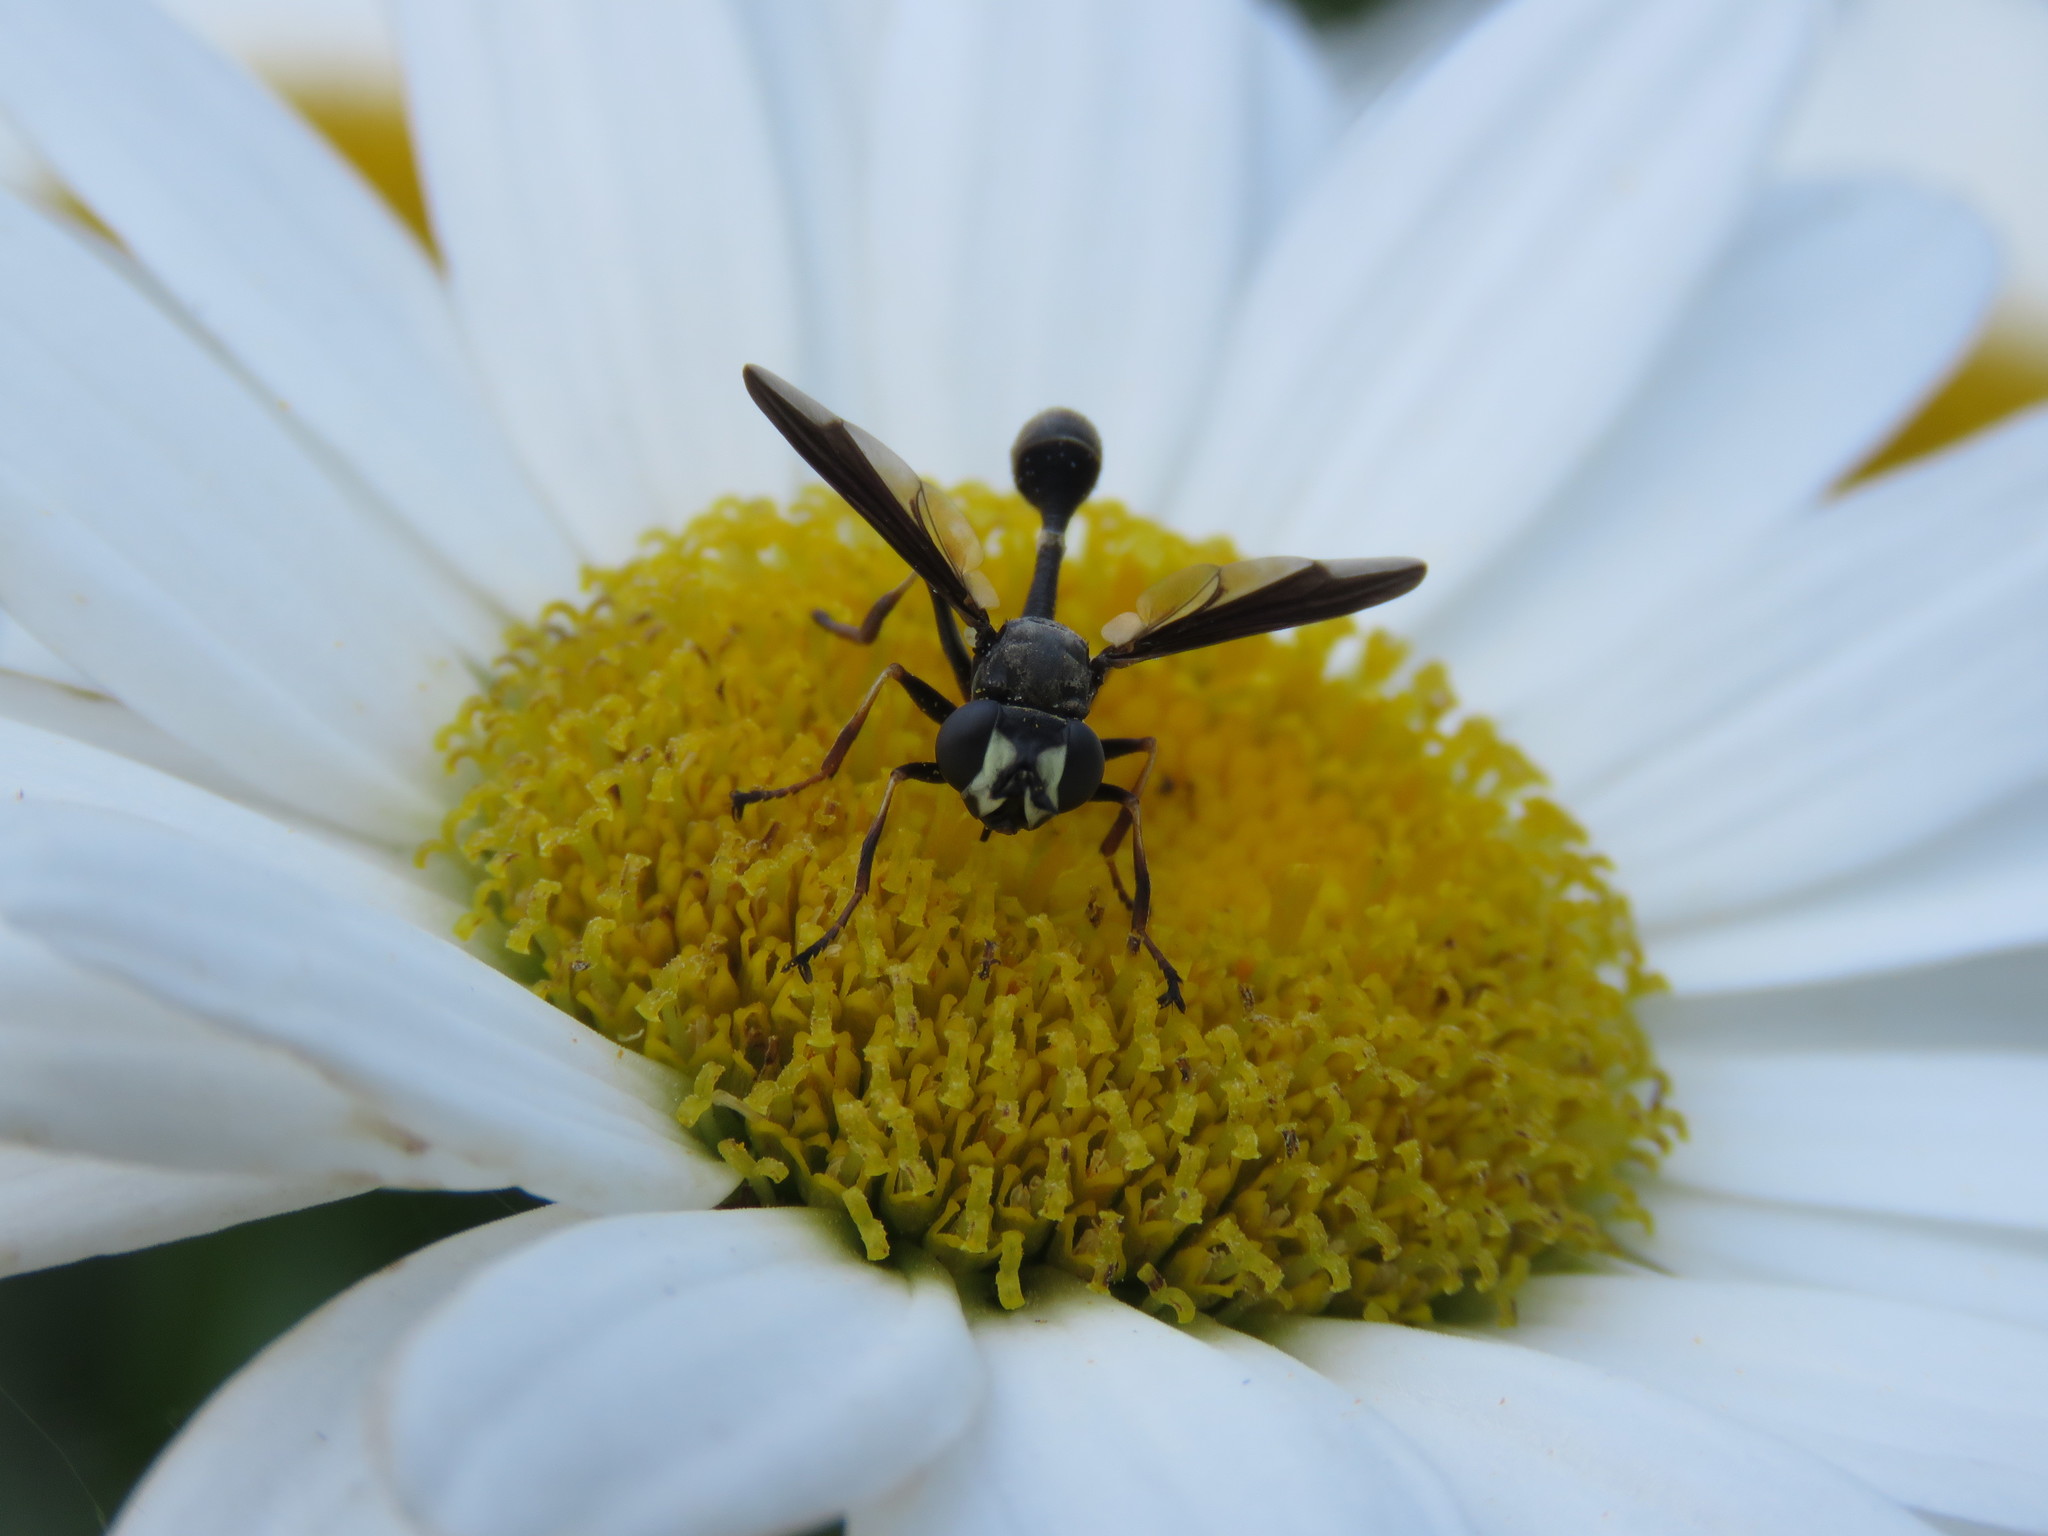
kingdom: Animalia
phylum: Arthropoda
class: Insecta
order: Diptera
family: Conopidae
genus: Physocephala
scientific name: Physocephala tibialis
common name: Common eastern physocephala
